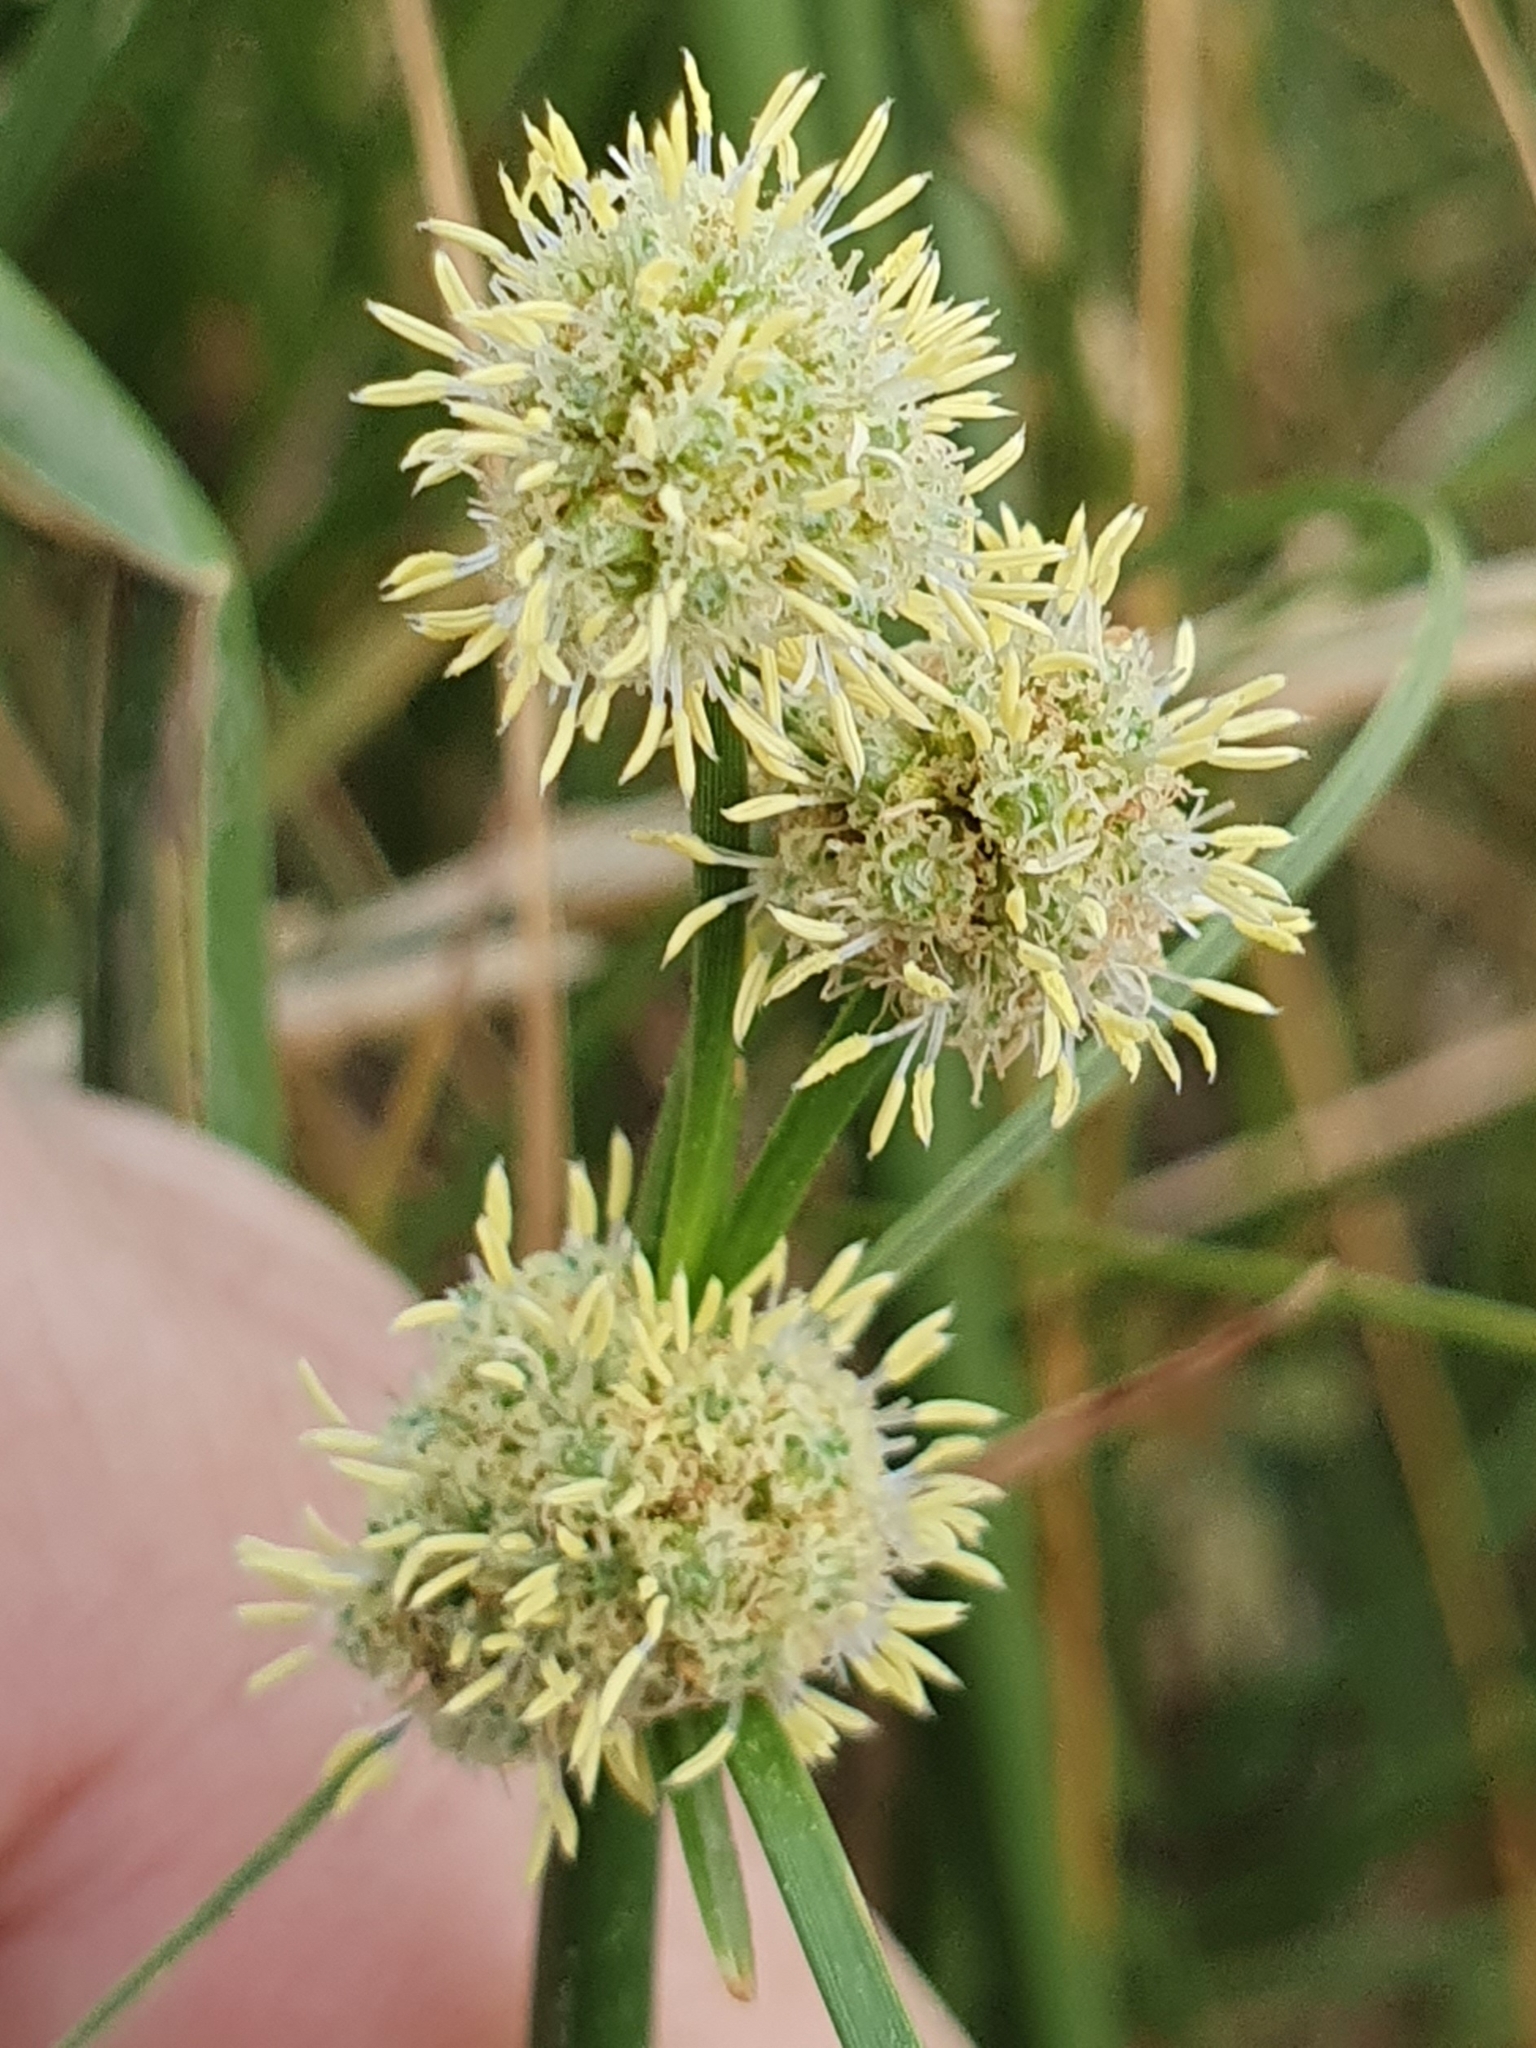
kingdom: Plantae
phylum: Tracheophyta
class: Liliopsida
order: Poales
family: Cyperaceae
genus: Scirpoides
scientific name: Scirpoides holoschoenus
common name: Round-headed club-rush
